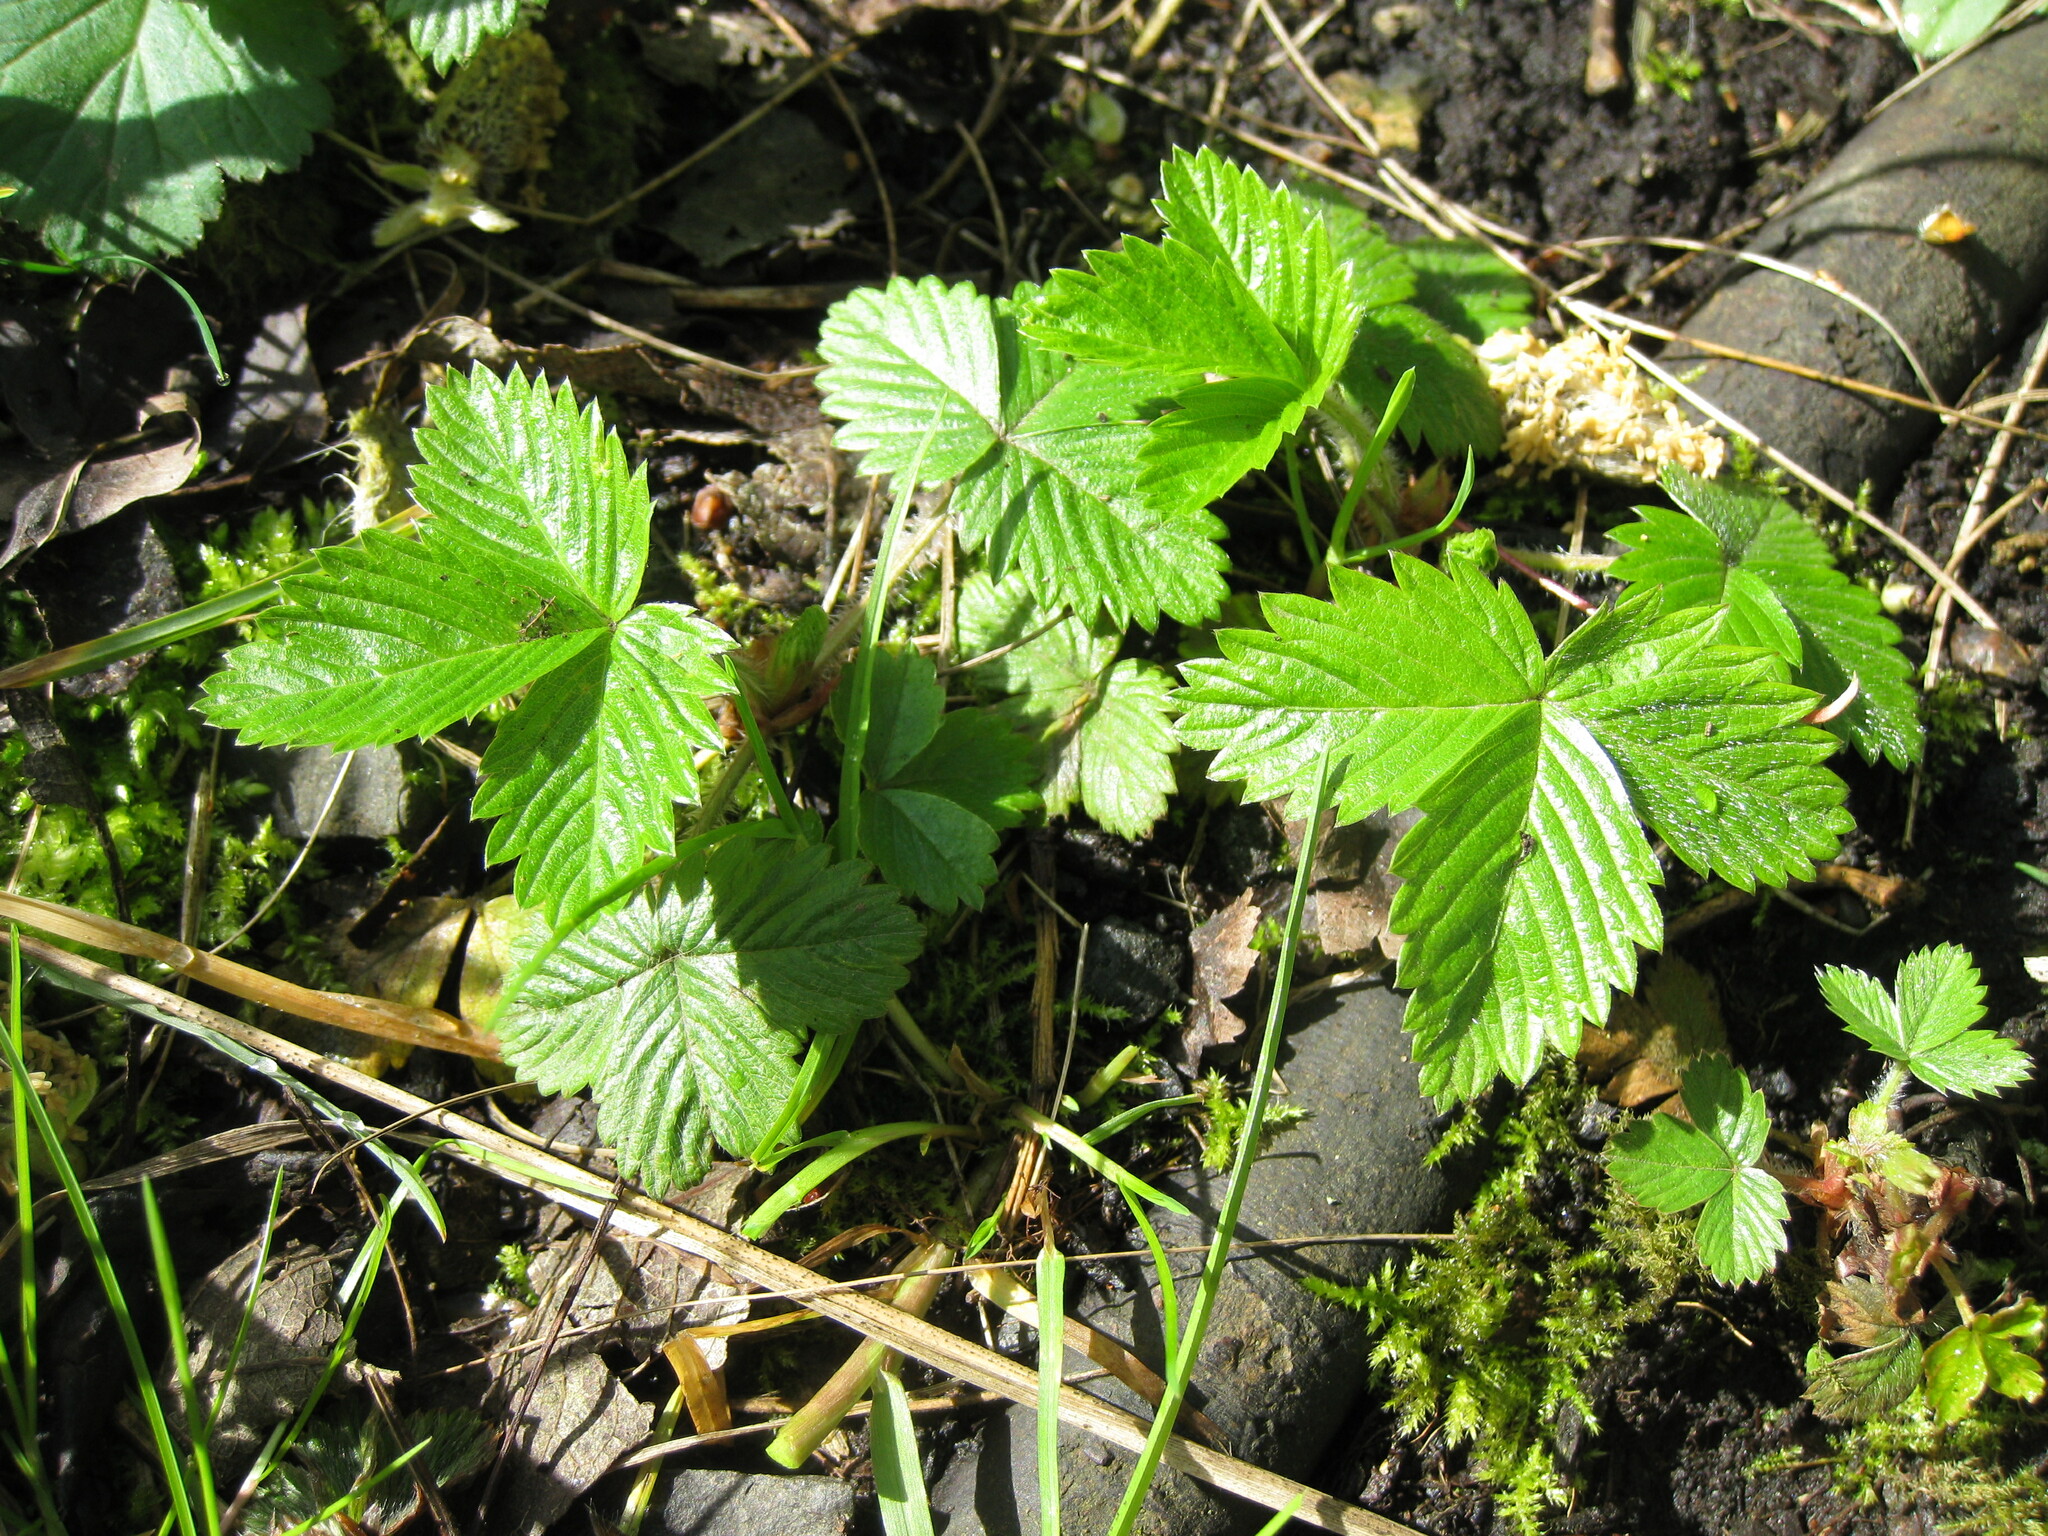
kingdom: Plantae
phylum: Tracheophyta
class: Magnoliopsida
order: Rosales
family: Rosaceae
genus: Fragaria
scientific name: Fragaria vesca
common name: Wild strawberry
